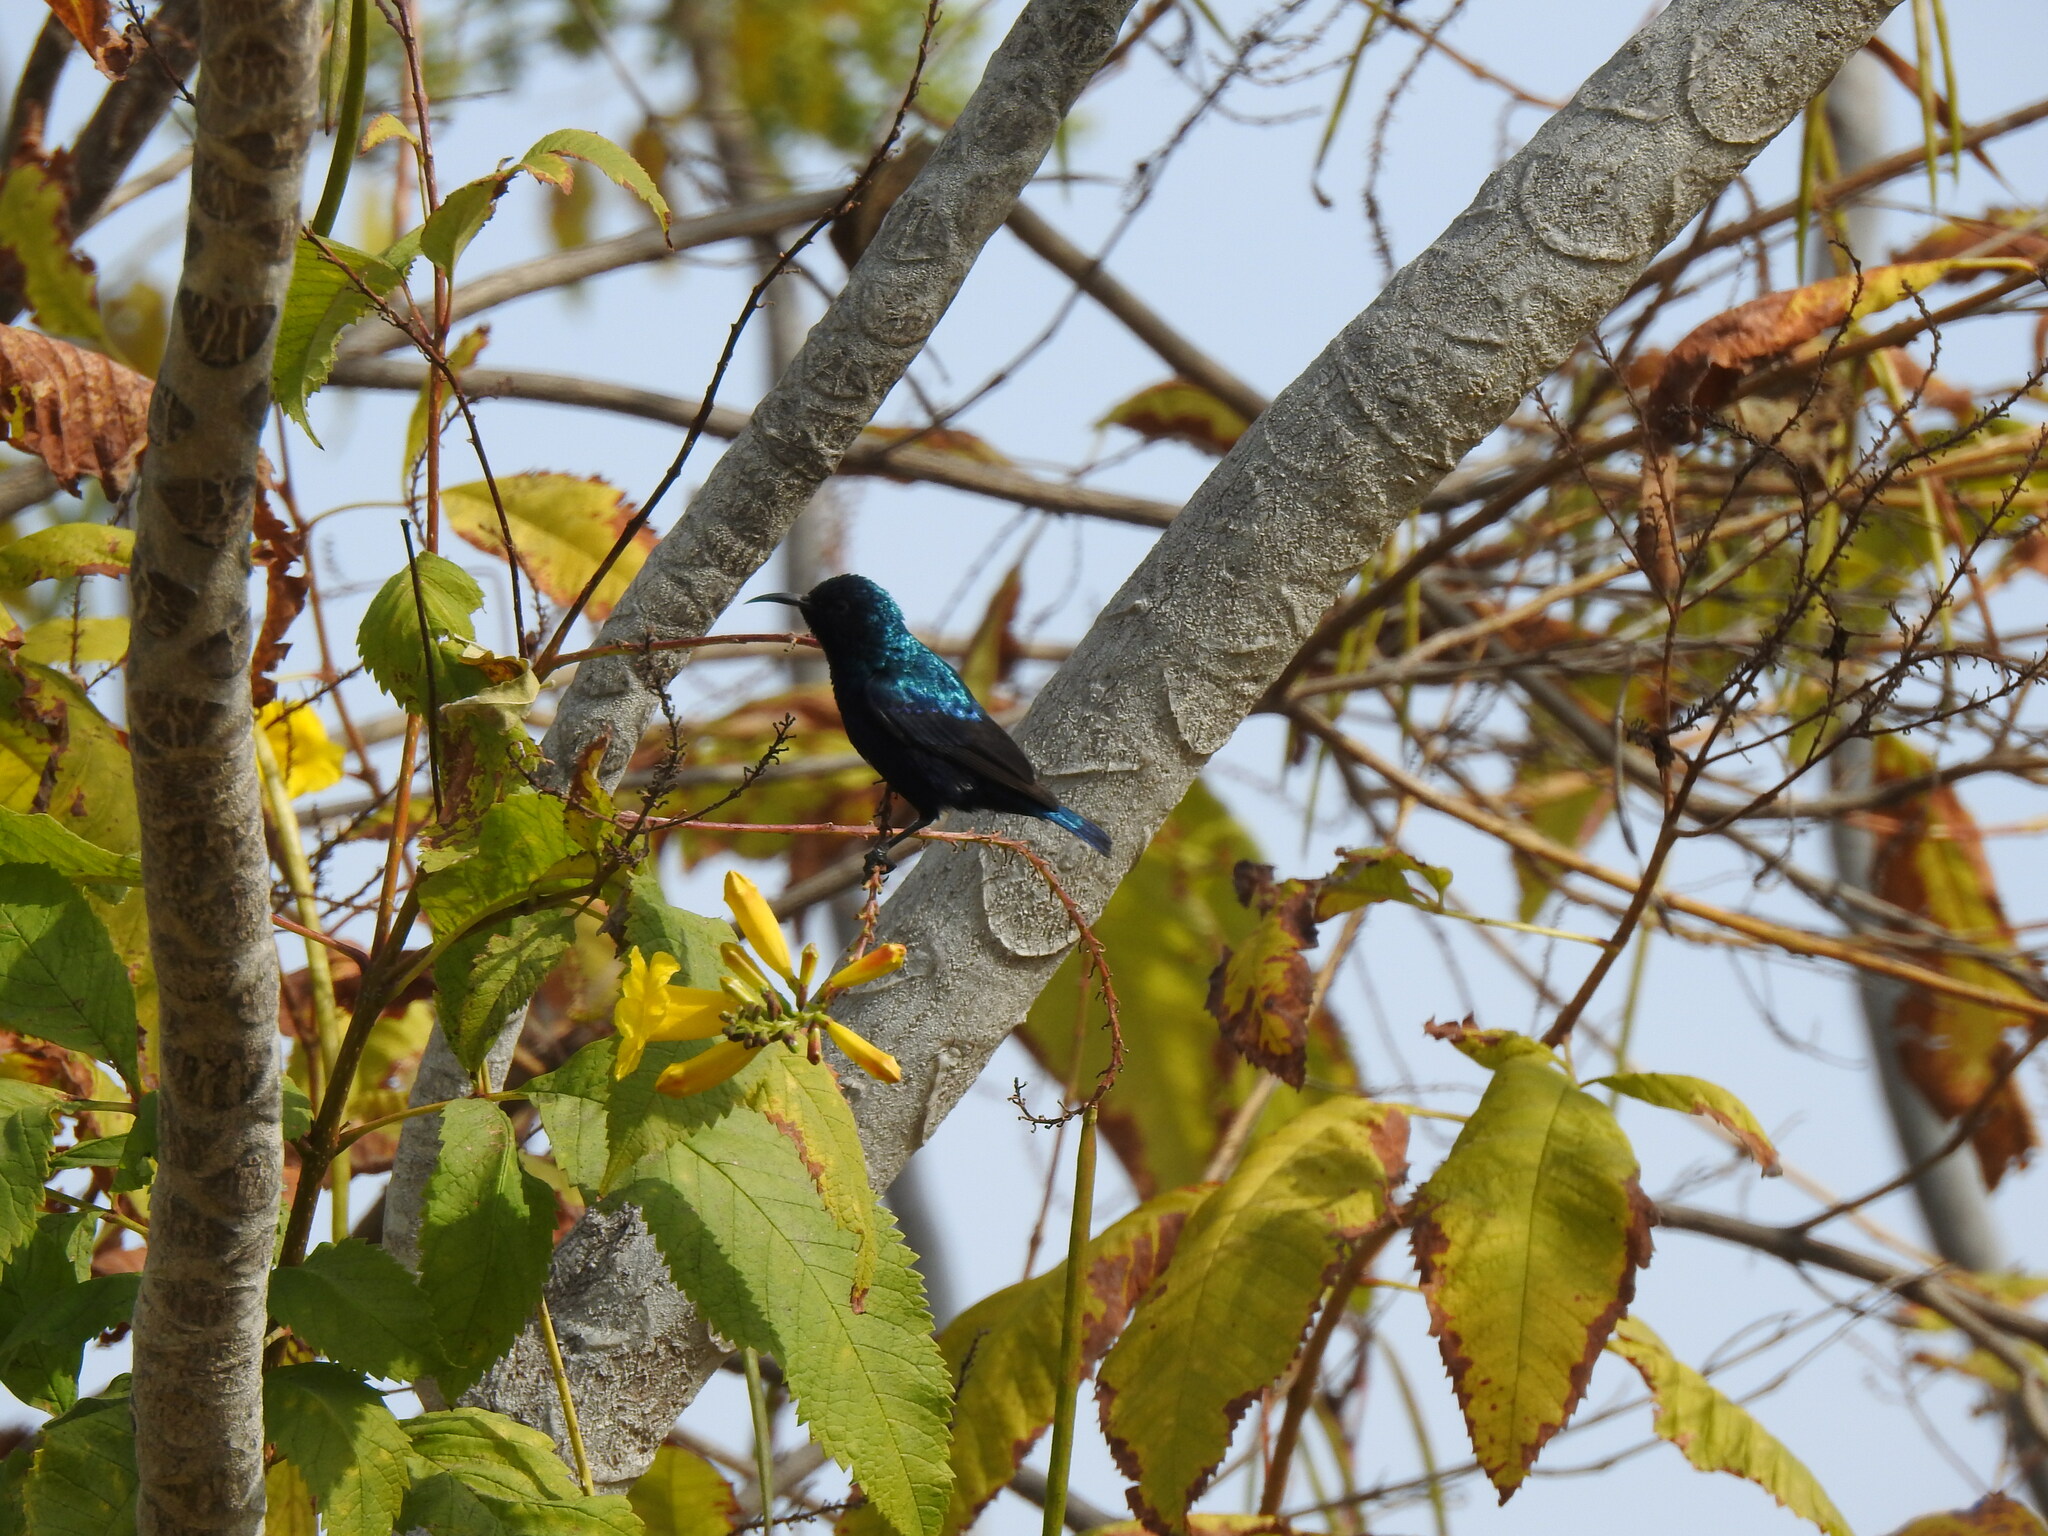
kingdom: Animalia
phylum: Chordata
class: Aves
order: Passeriformes
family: Nectariniidae
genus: Cinnyris
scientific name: Cinnyris asiaticus
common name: Purple sunbird
